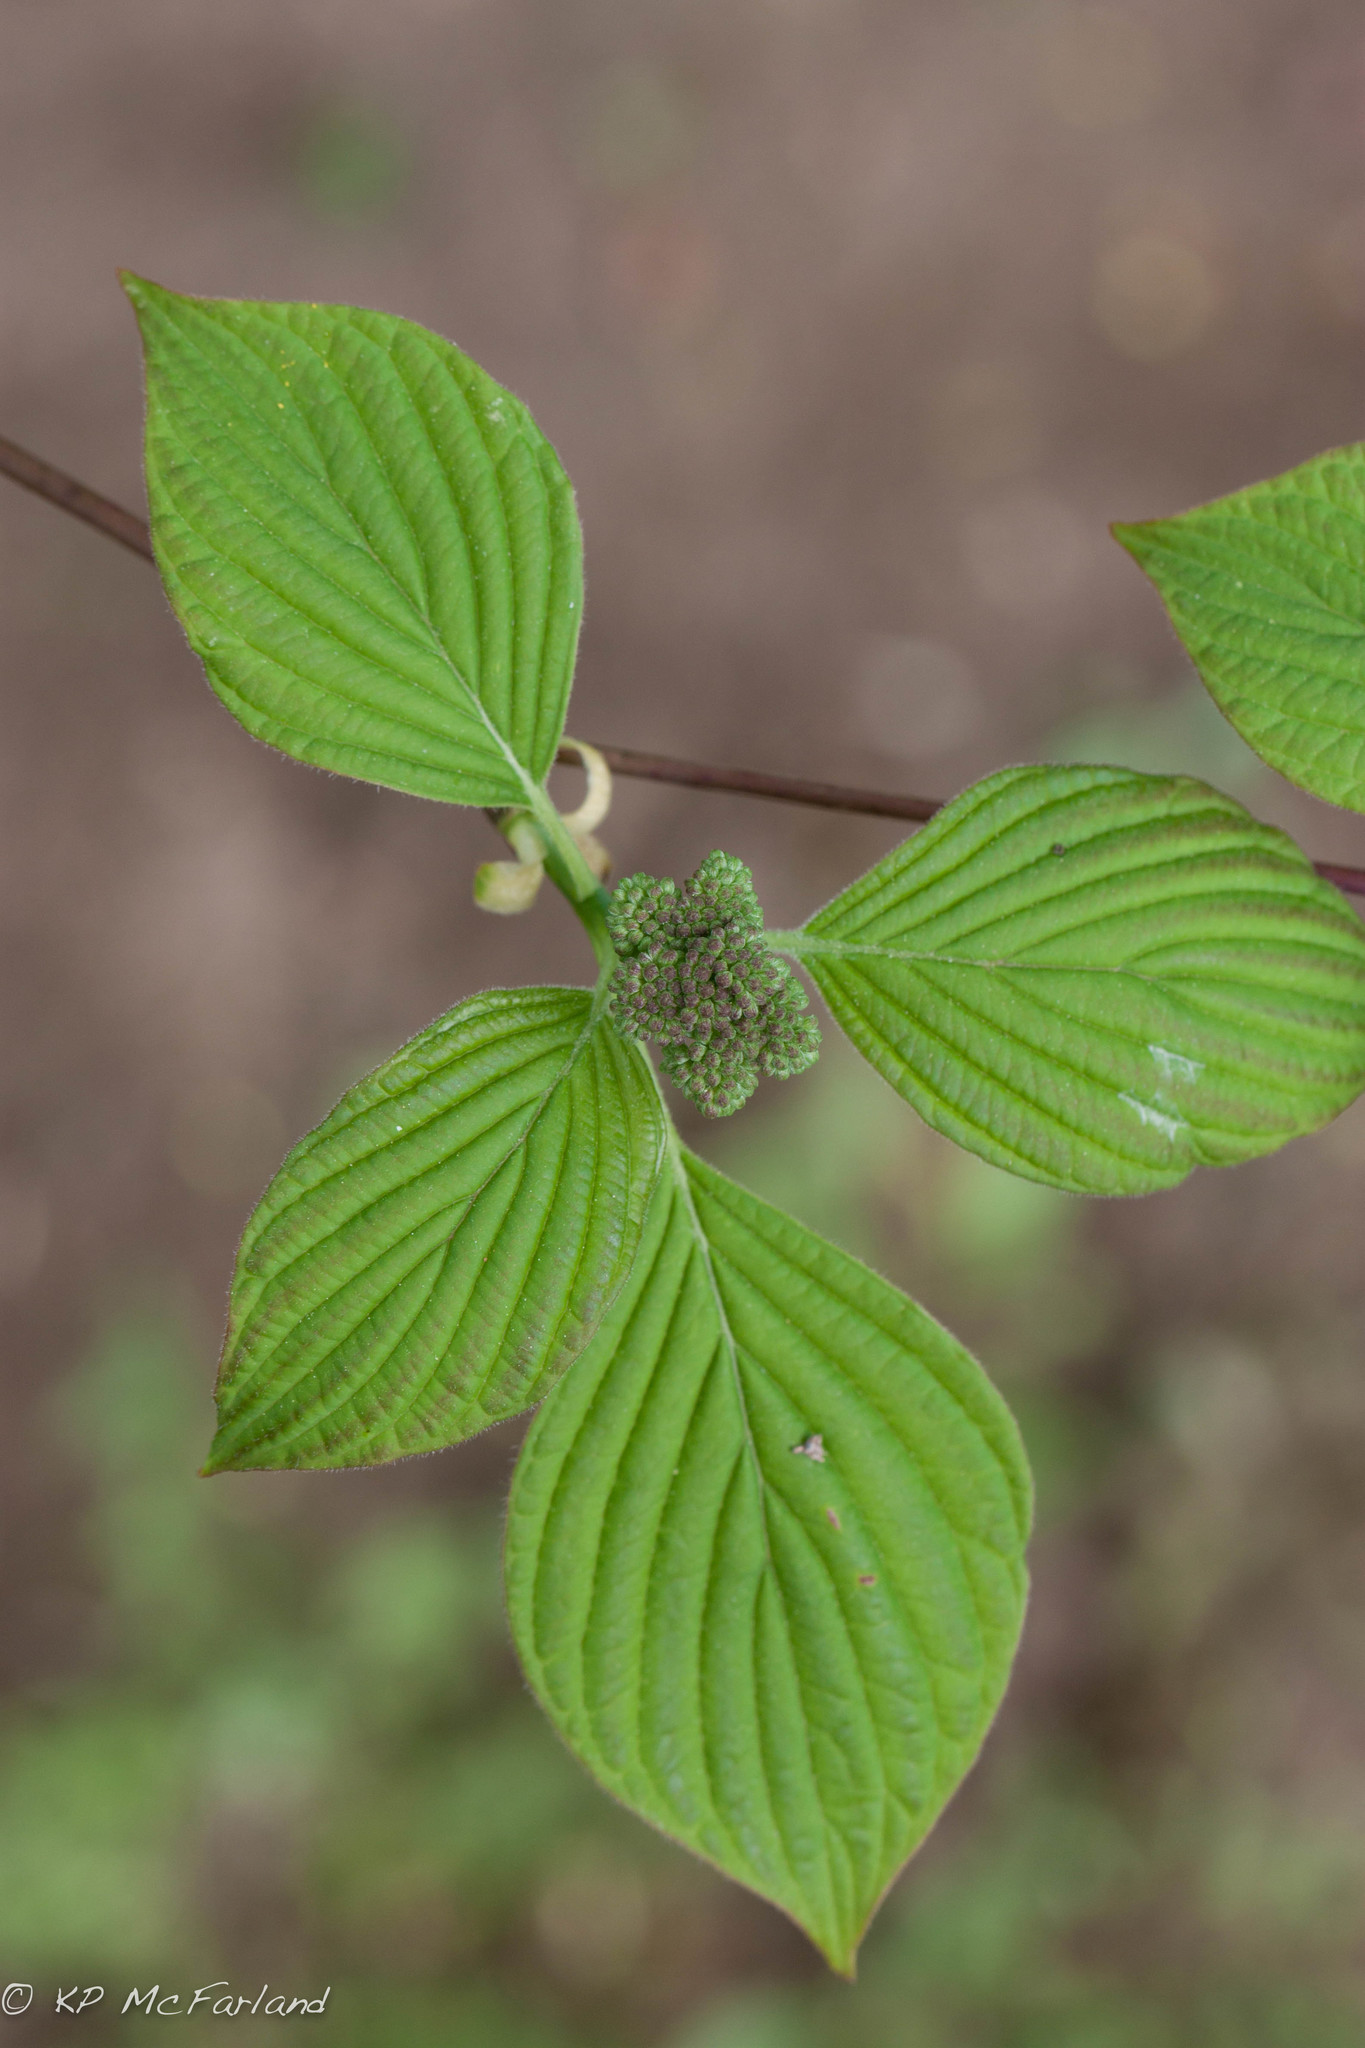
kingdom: Plantae
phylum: Tracheophyta
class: Magnoliopsida
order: Cornales
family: Cornaceae
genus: Cornus
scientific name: Cornus alternifolia
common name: Pagoda dogwood
